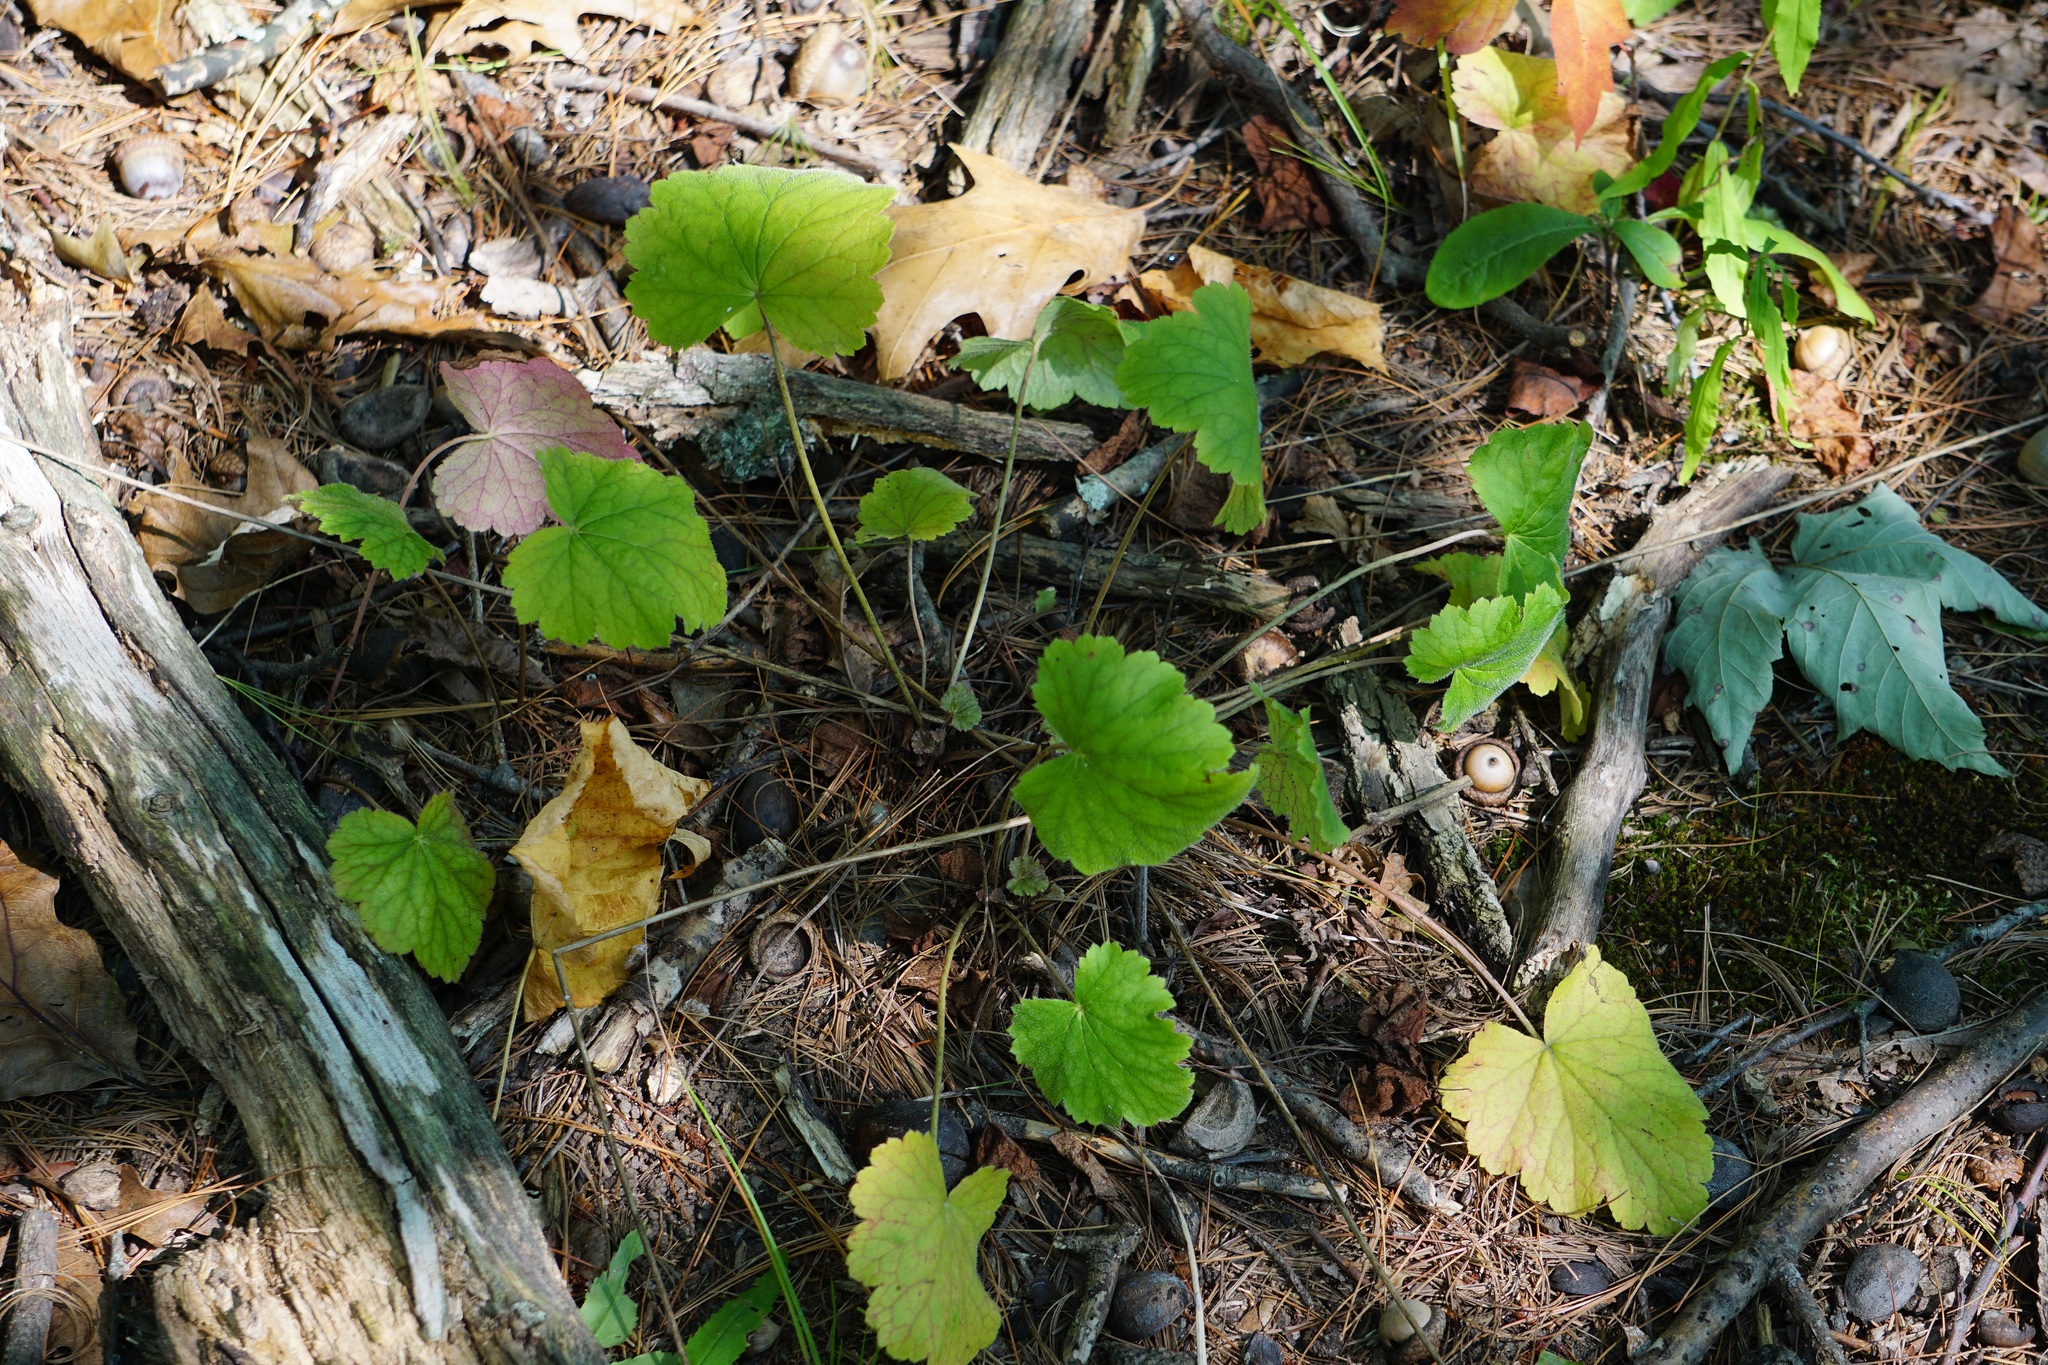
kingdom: Plantae
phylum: Tracheophyta
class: Magnoliopsida
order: Saxifragales
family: Saxifragaceae
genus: Heuchera
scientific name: Heuchera americana
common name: Alumroot
